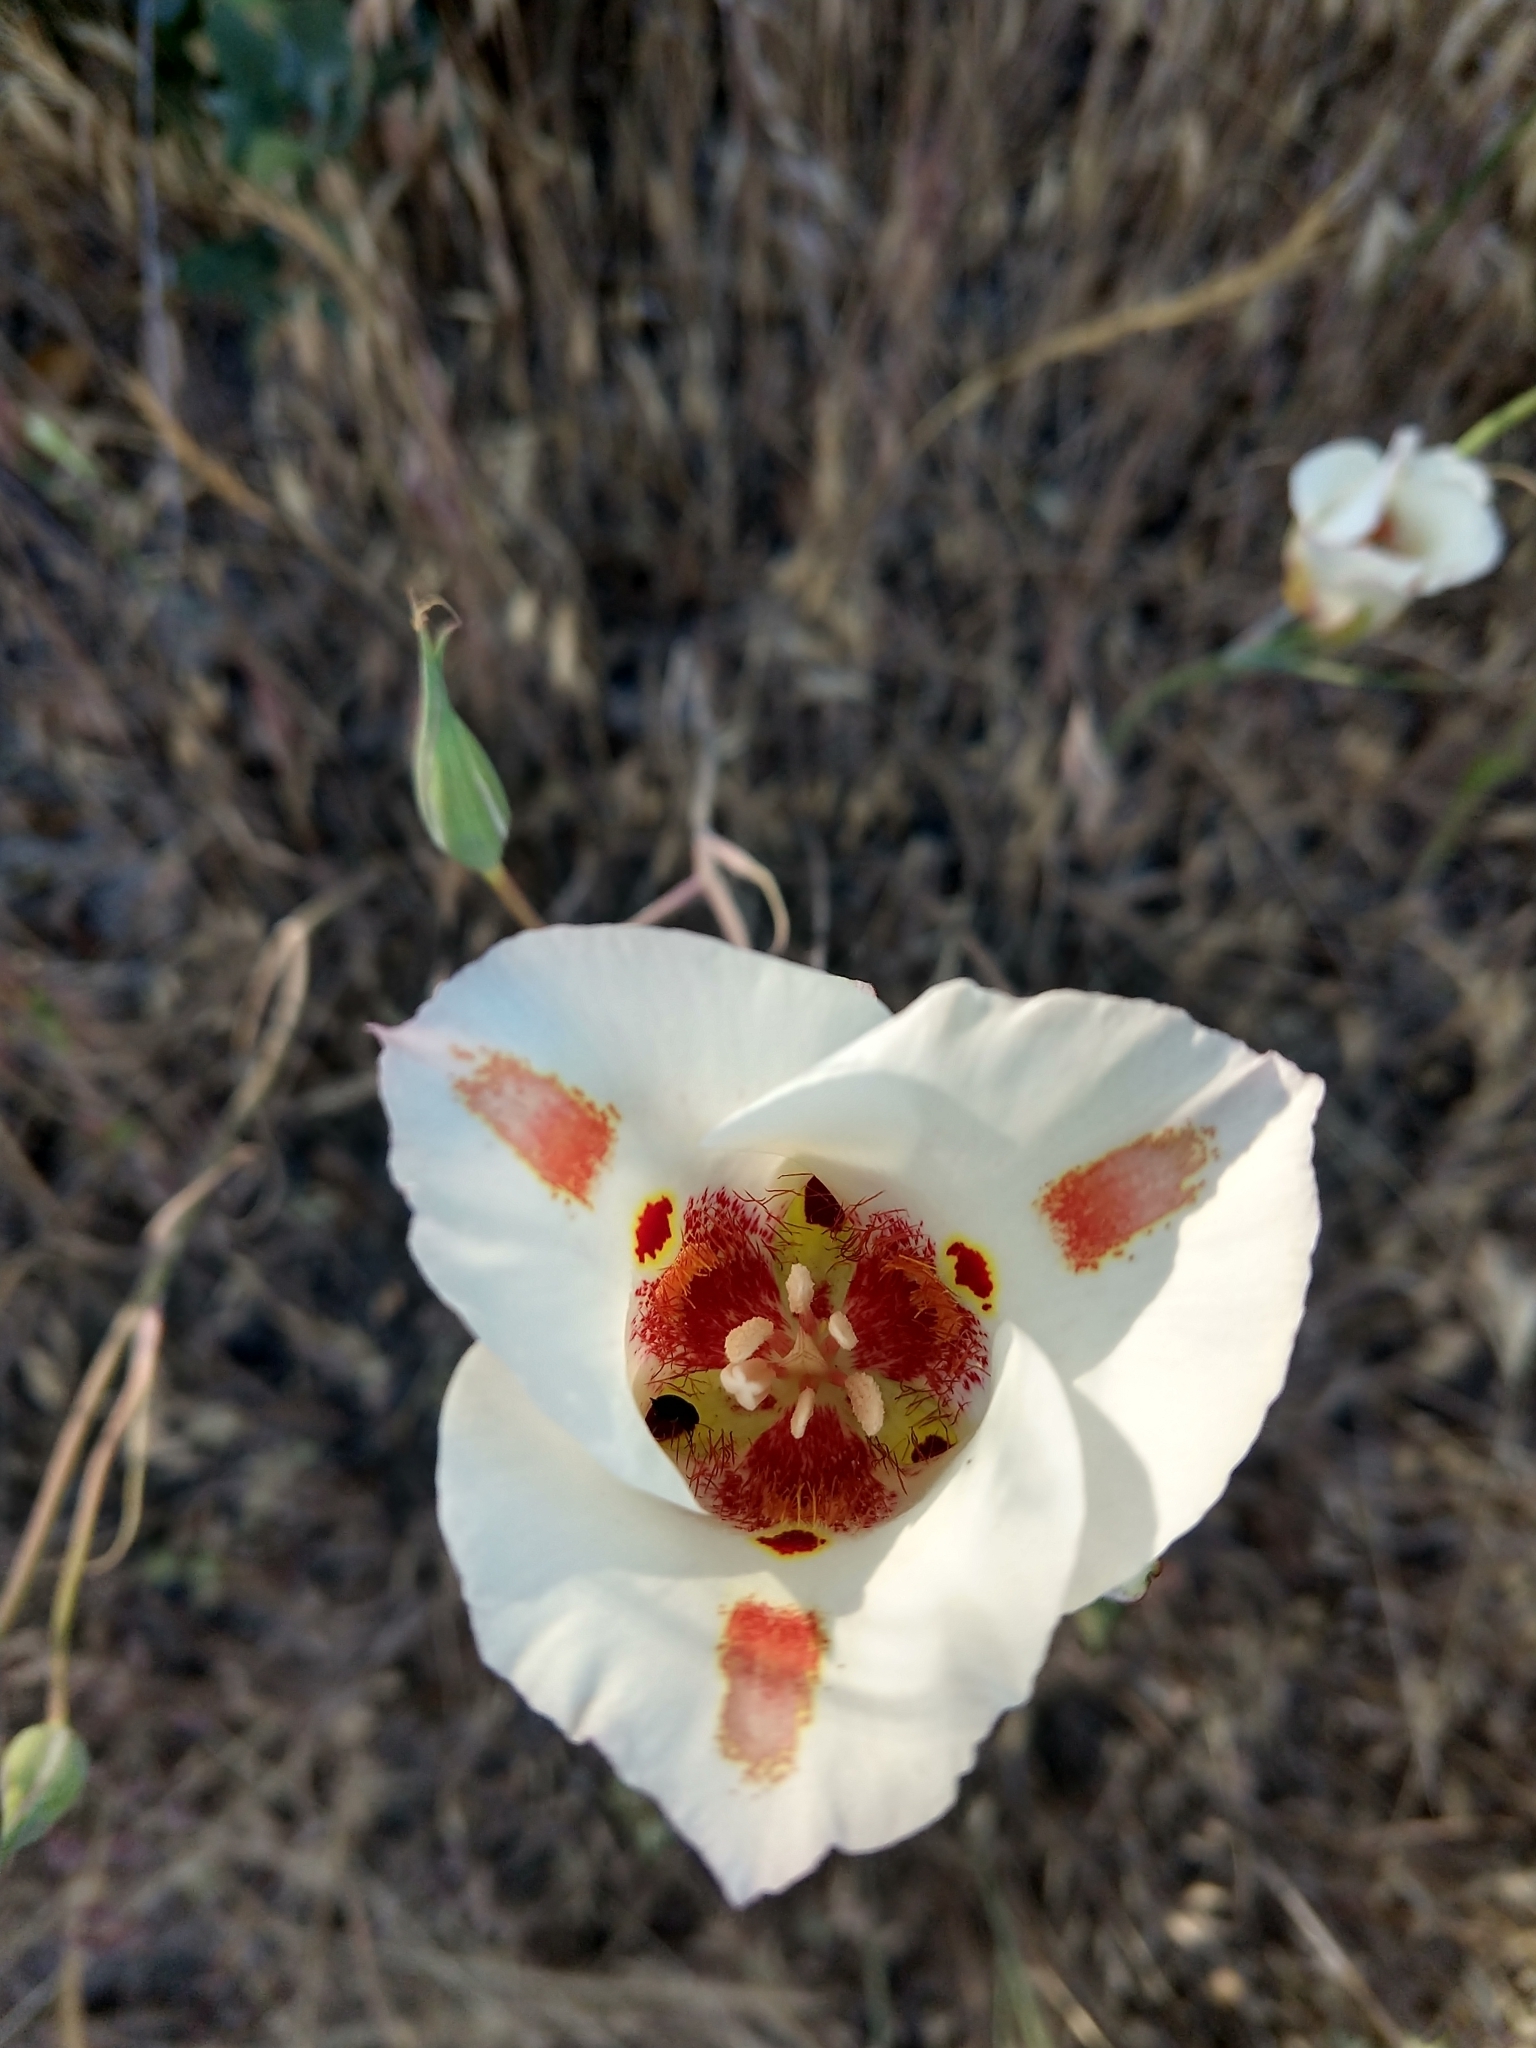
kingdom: Plantae
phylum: Tracheophyta
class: Liliopsida
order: Liliales
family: Liliaceae
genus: Calochortus
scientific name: Calochortus venustus
